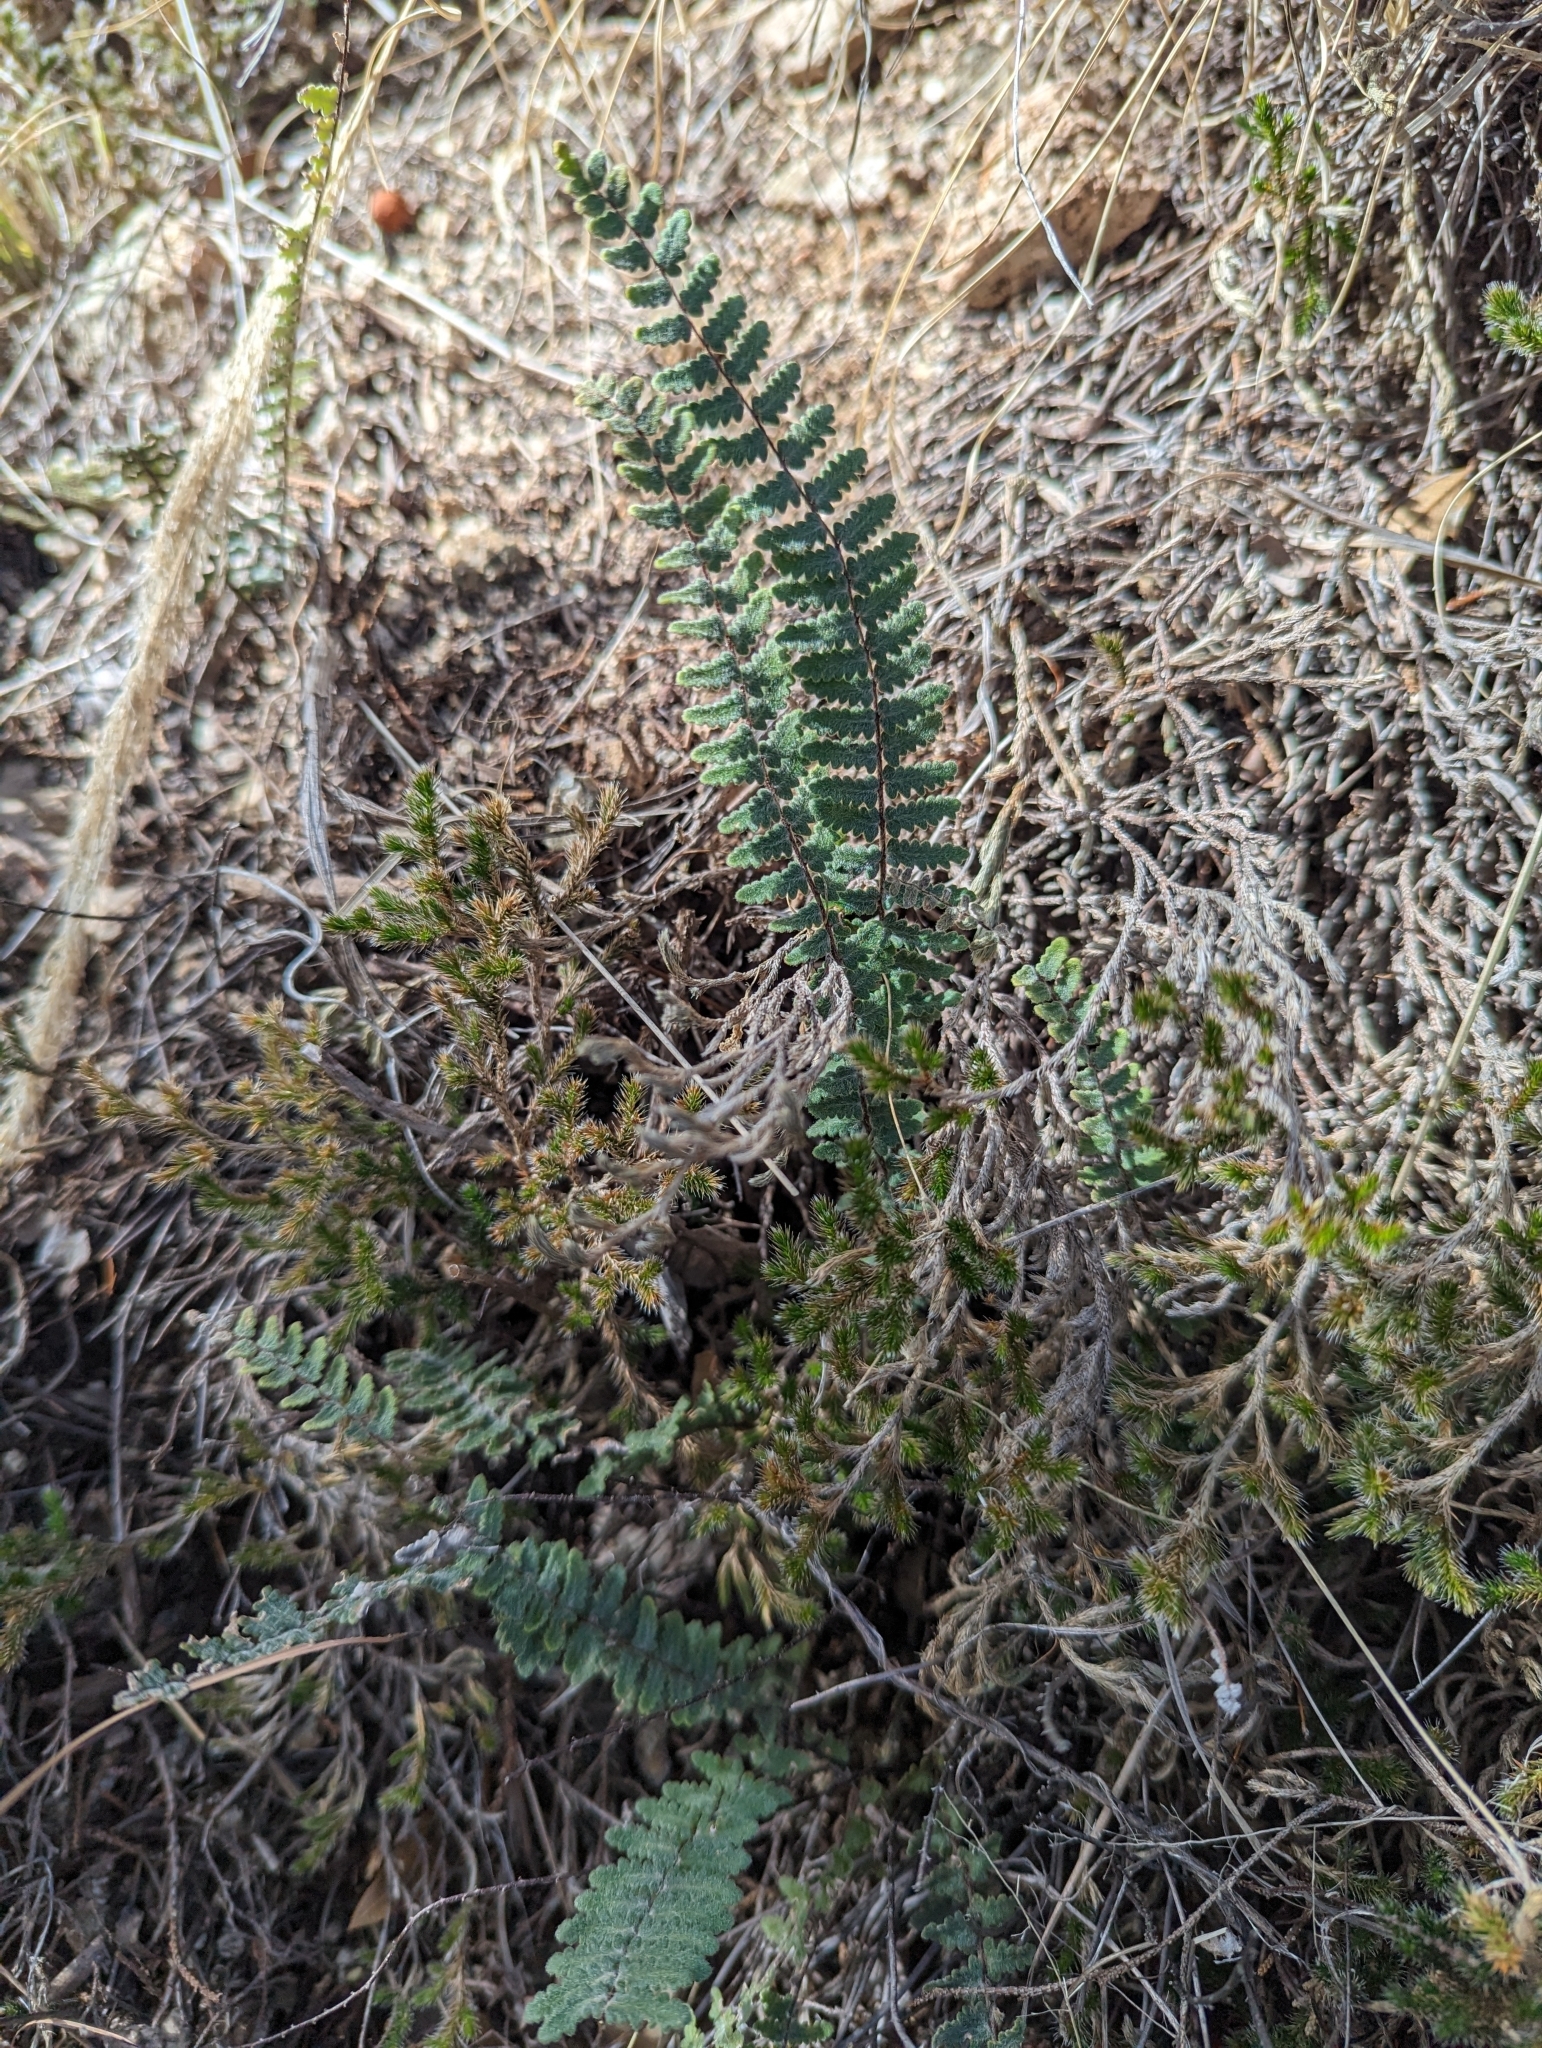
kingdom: Plantae
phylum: Tracheophyta
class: Polypodiopsida
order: Polypodiales
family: Pteridaceae
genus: Myriopteris
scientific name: Myriopteris aurea
